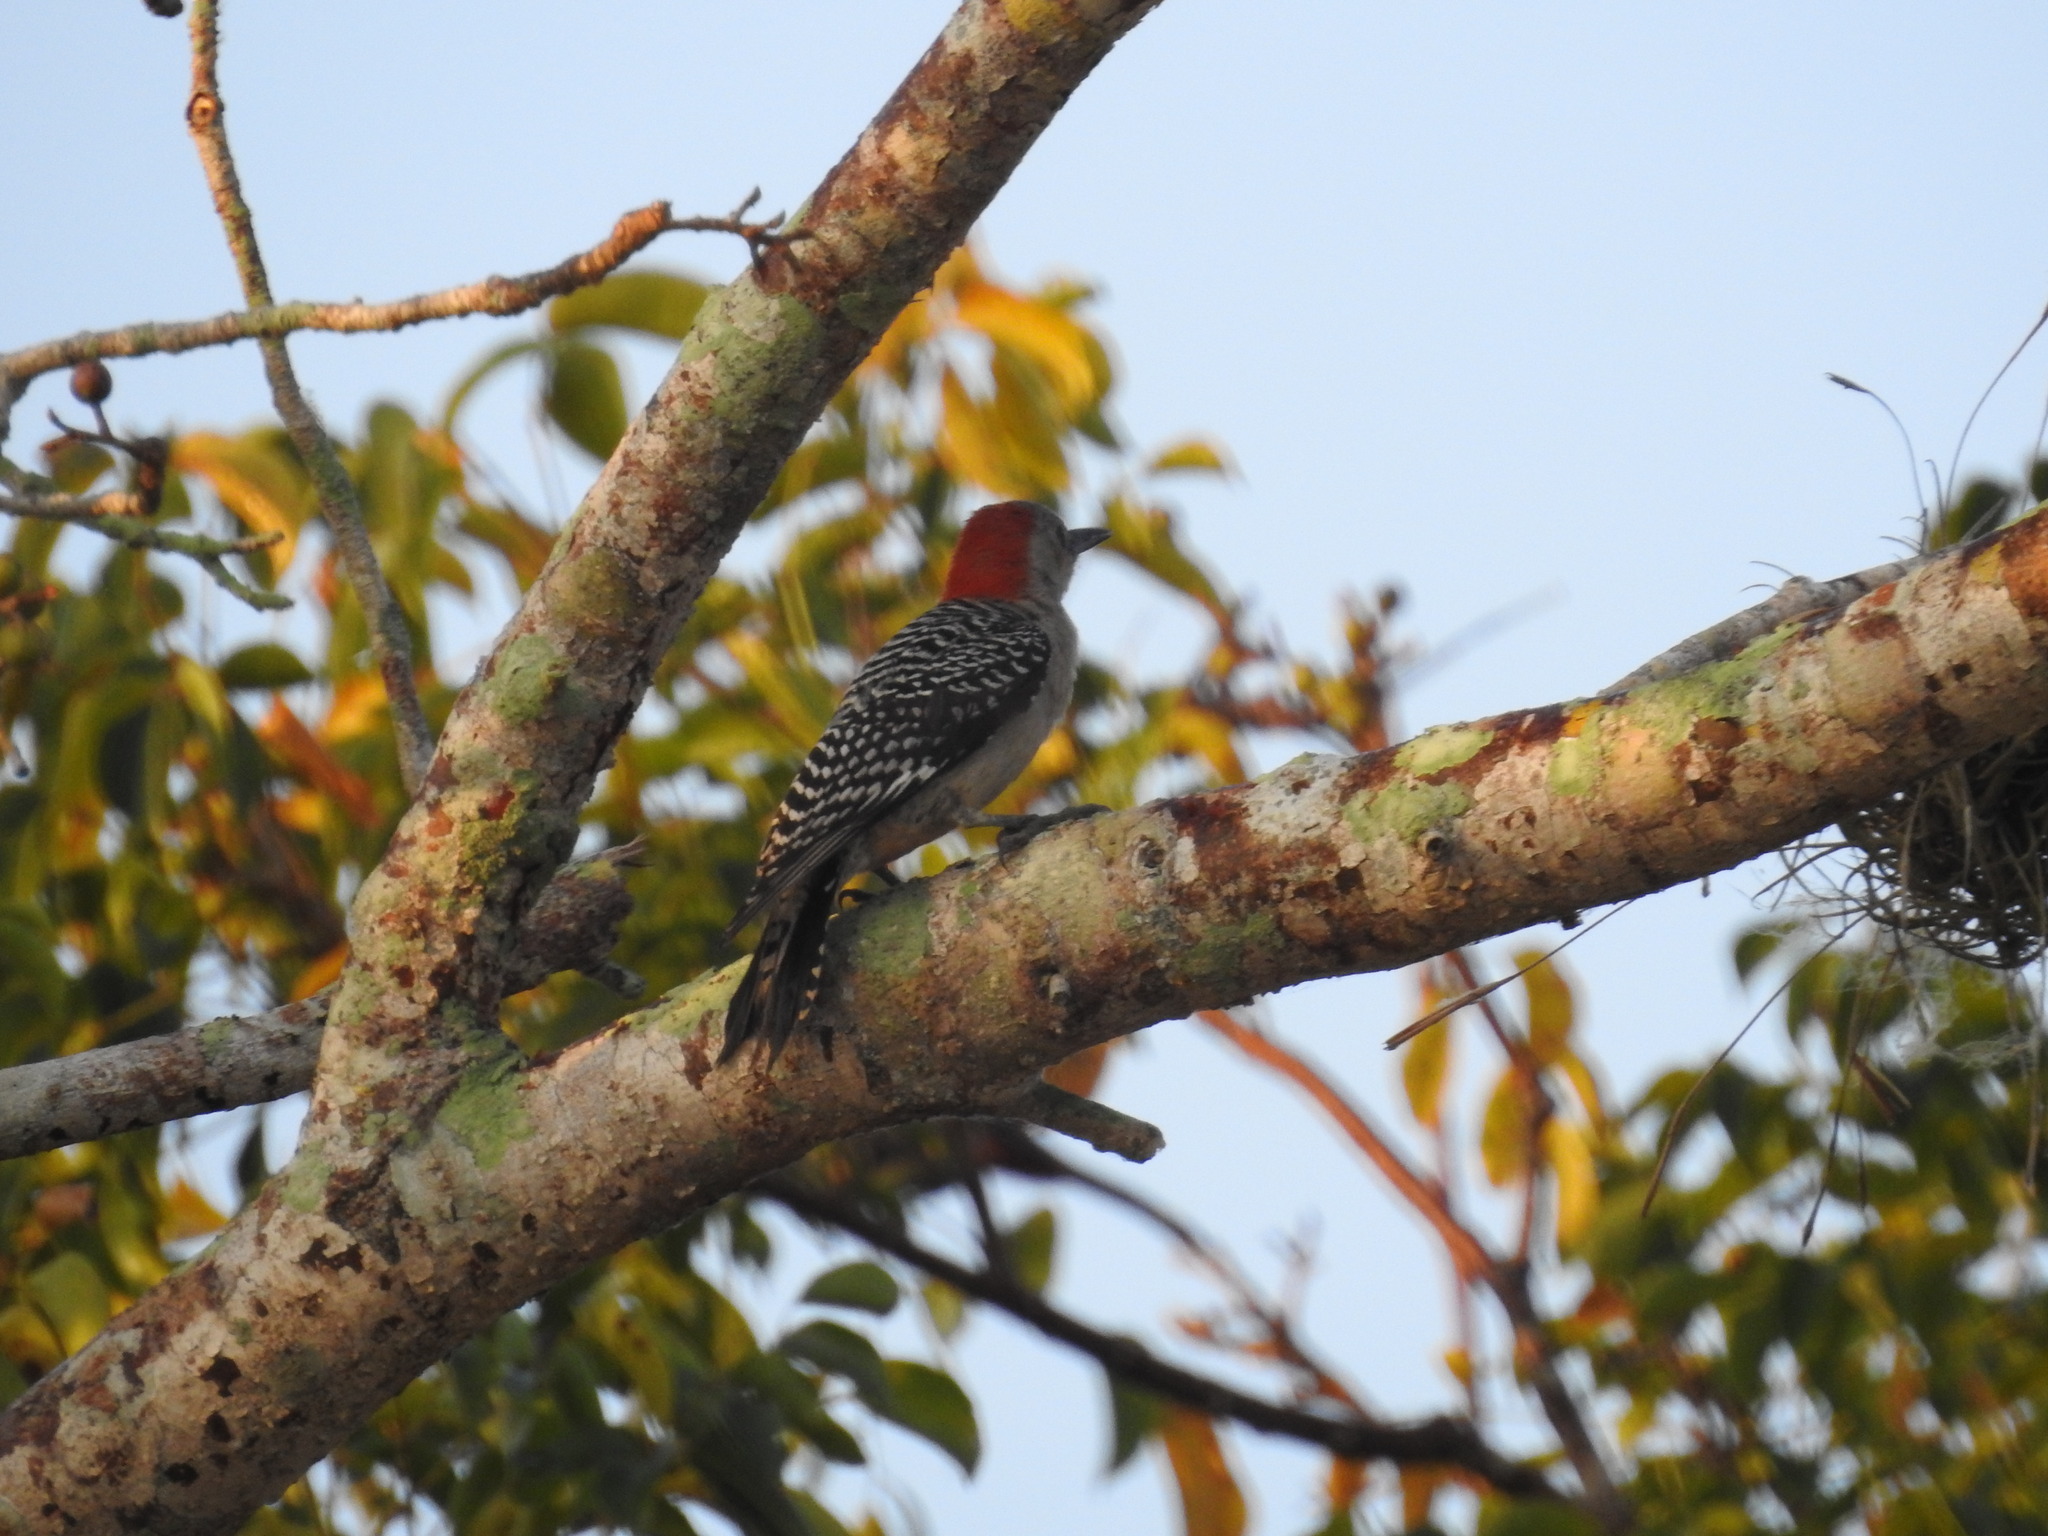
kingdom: Animalia
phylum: Chordata
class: Aves
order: Piciformes
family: Picidae
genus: Melanerpes
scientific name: Melanerpes carolinus
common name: Red-bellied woodpecker
